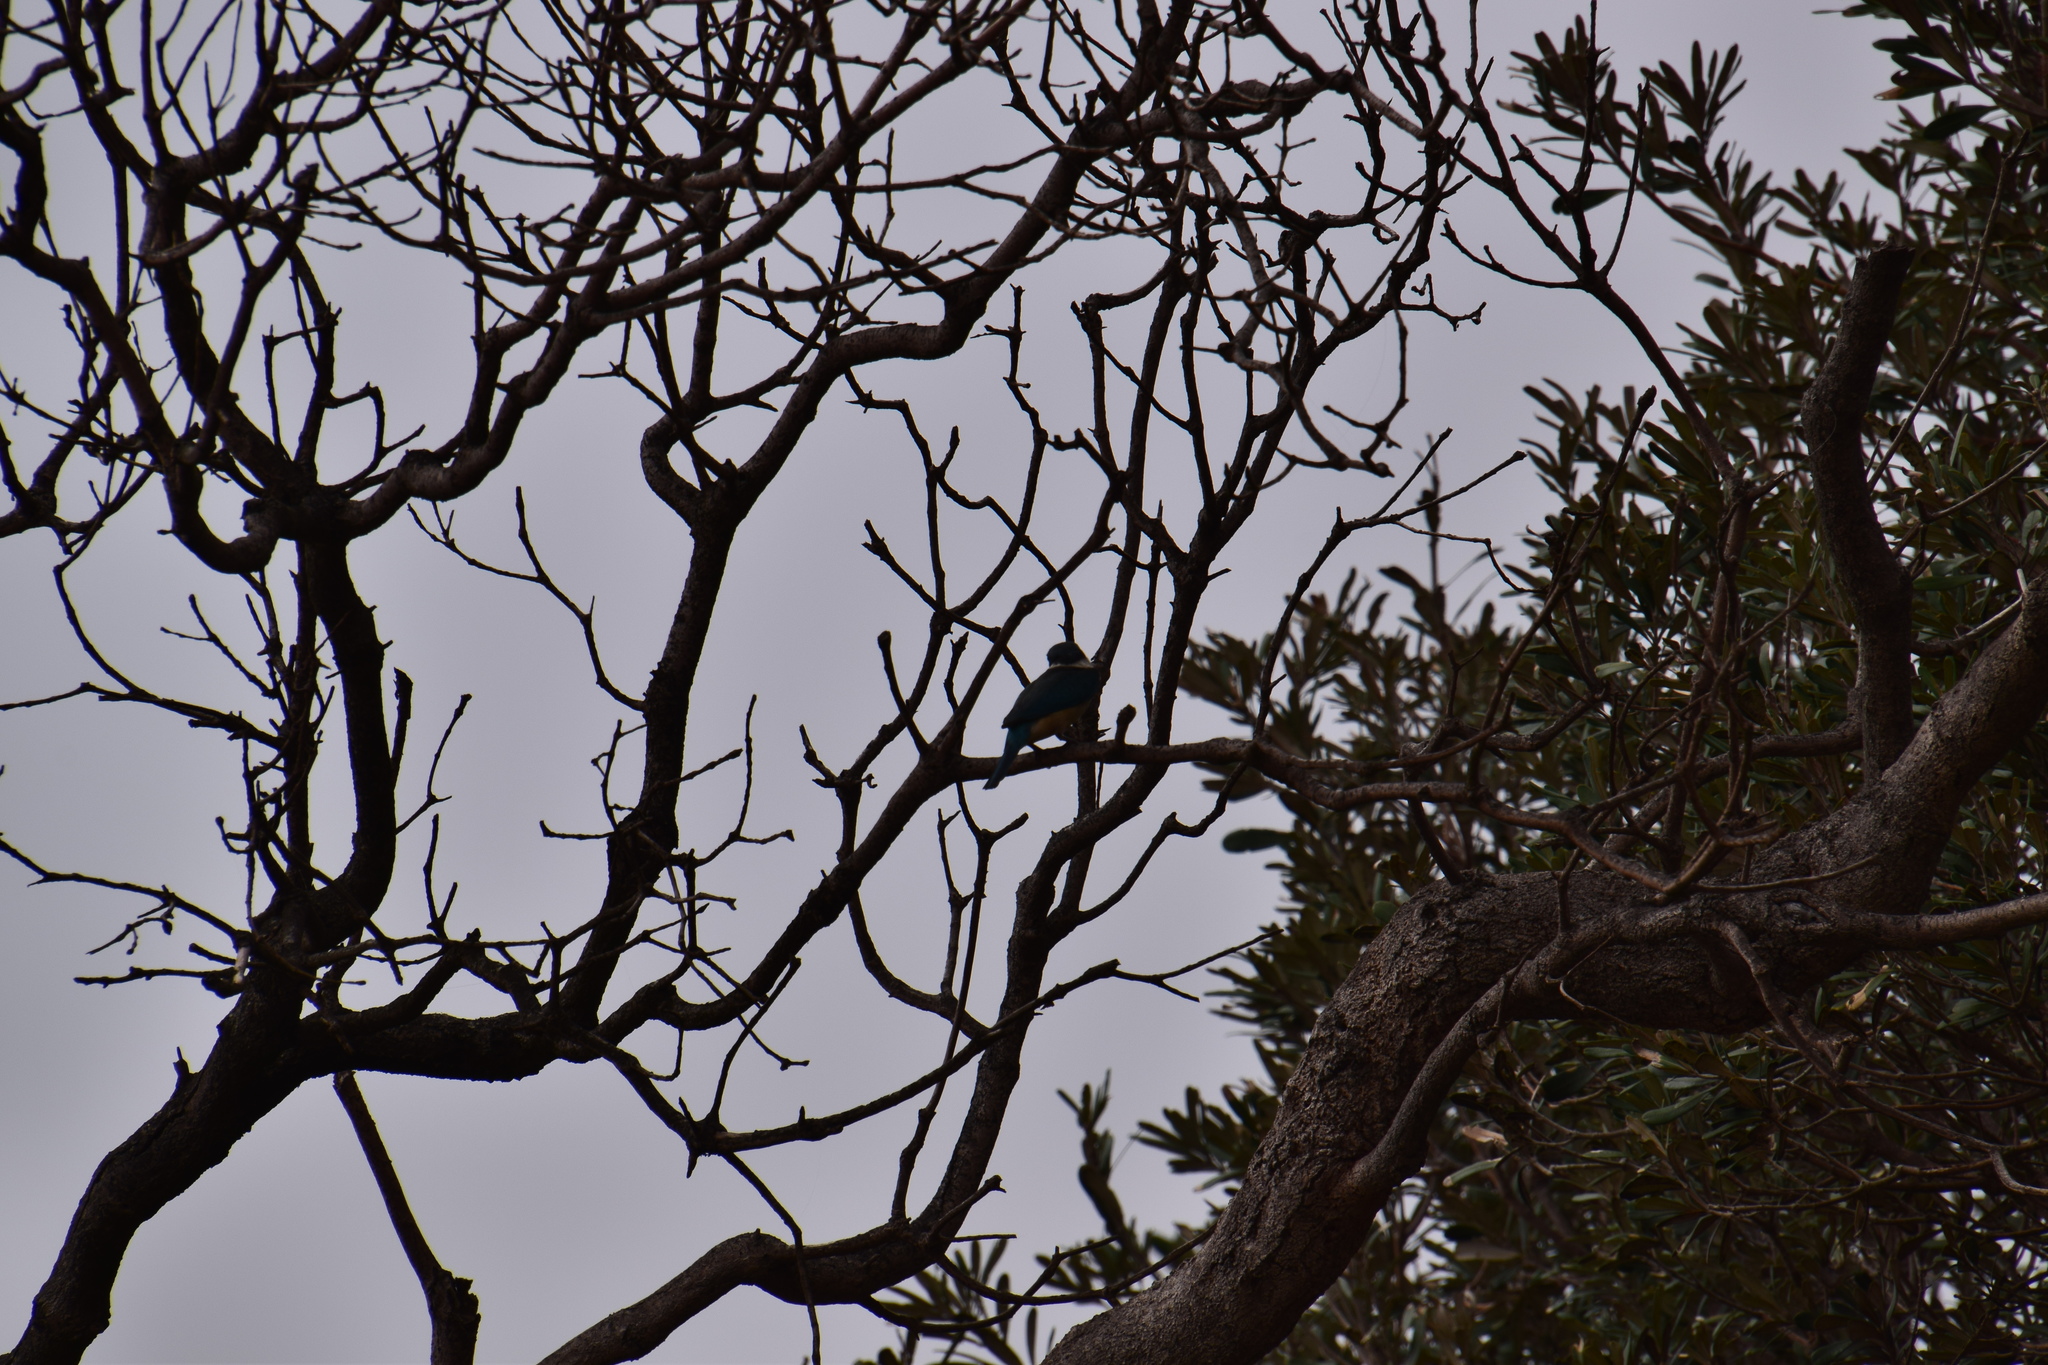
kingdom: Animalia
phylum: Chordata
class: Aves
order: Coraciiformes
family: Alcedinidae
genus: Todiramphus
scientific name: Todiramphus sanctus
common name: Sacred kingfisher
